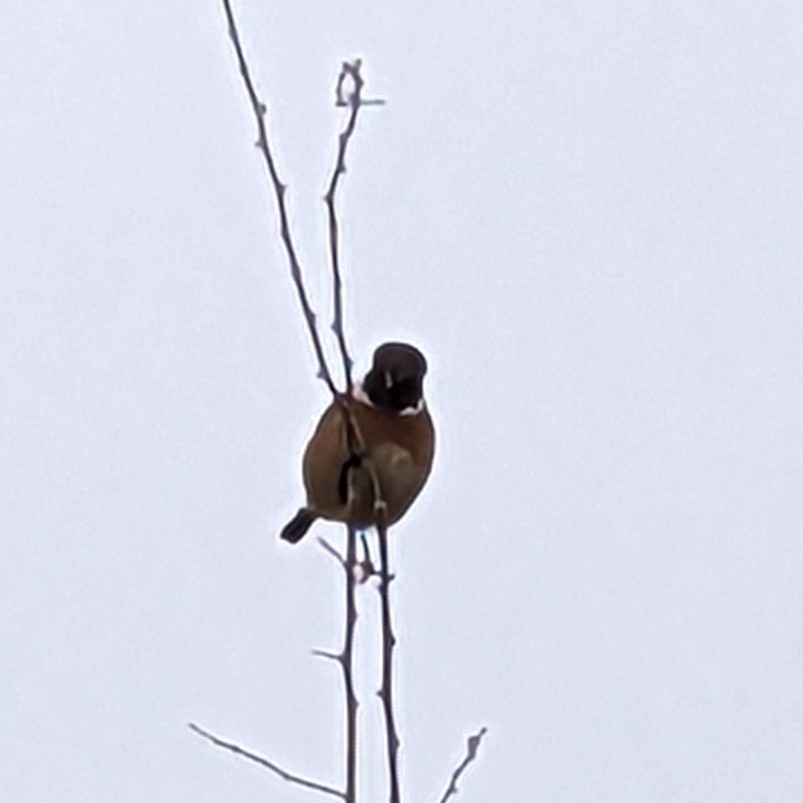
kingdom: Animalia
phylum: Chordata
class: Aves
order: Passeriformes
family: Muscicapidae
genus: Saxicola
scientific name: Saxicola rubicola
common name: European stonechat
